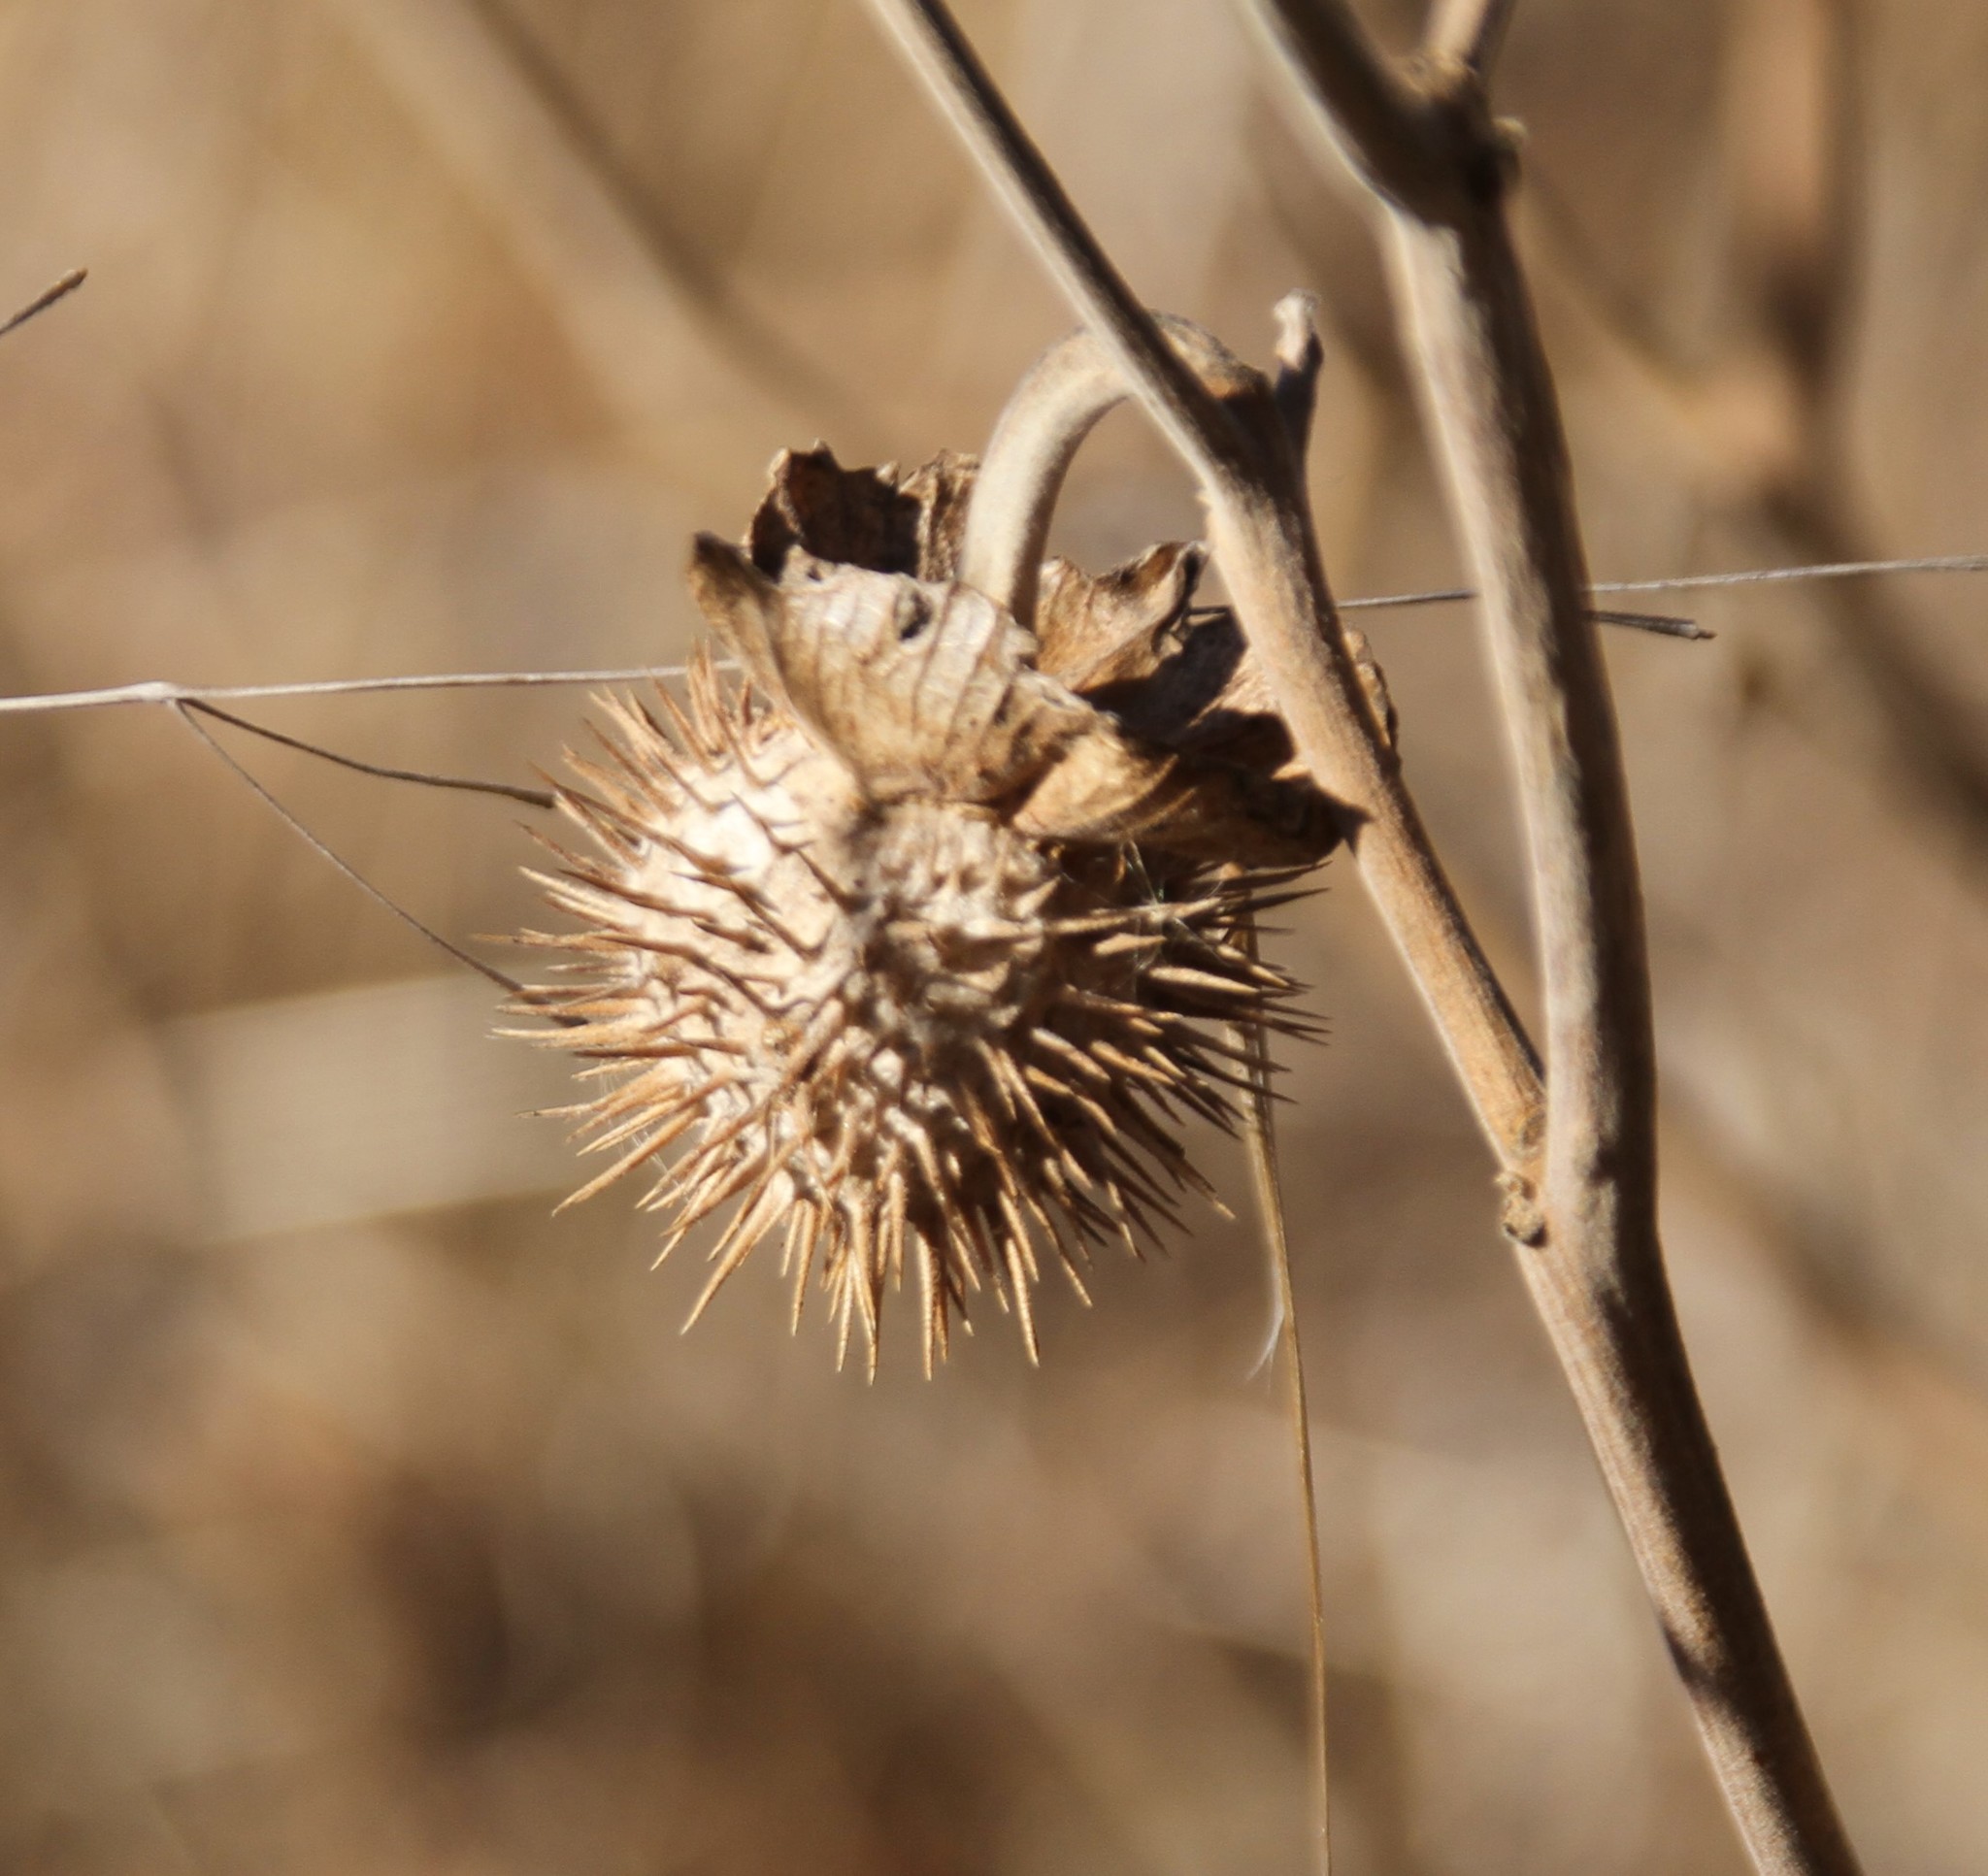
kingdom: Plantae
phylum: Tracheophyta
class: Magnoliopsida
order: Solanales
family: Solanaceae
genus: Datura
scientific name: Datura wrightii
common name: Sacred thorn-apple
